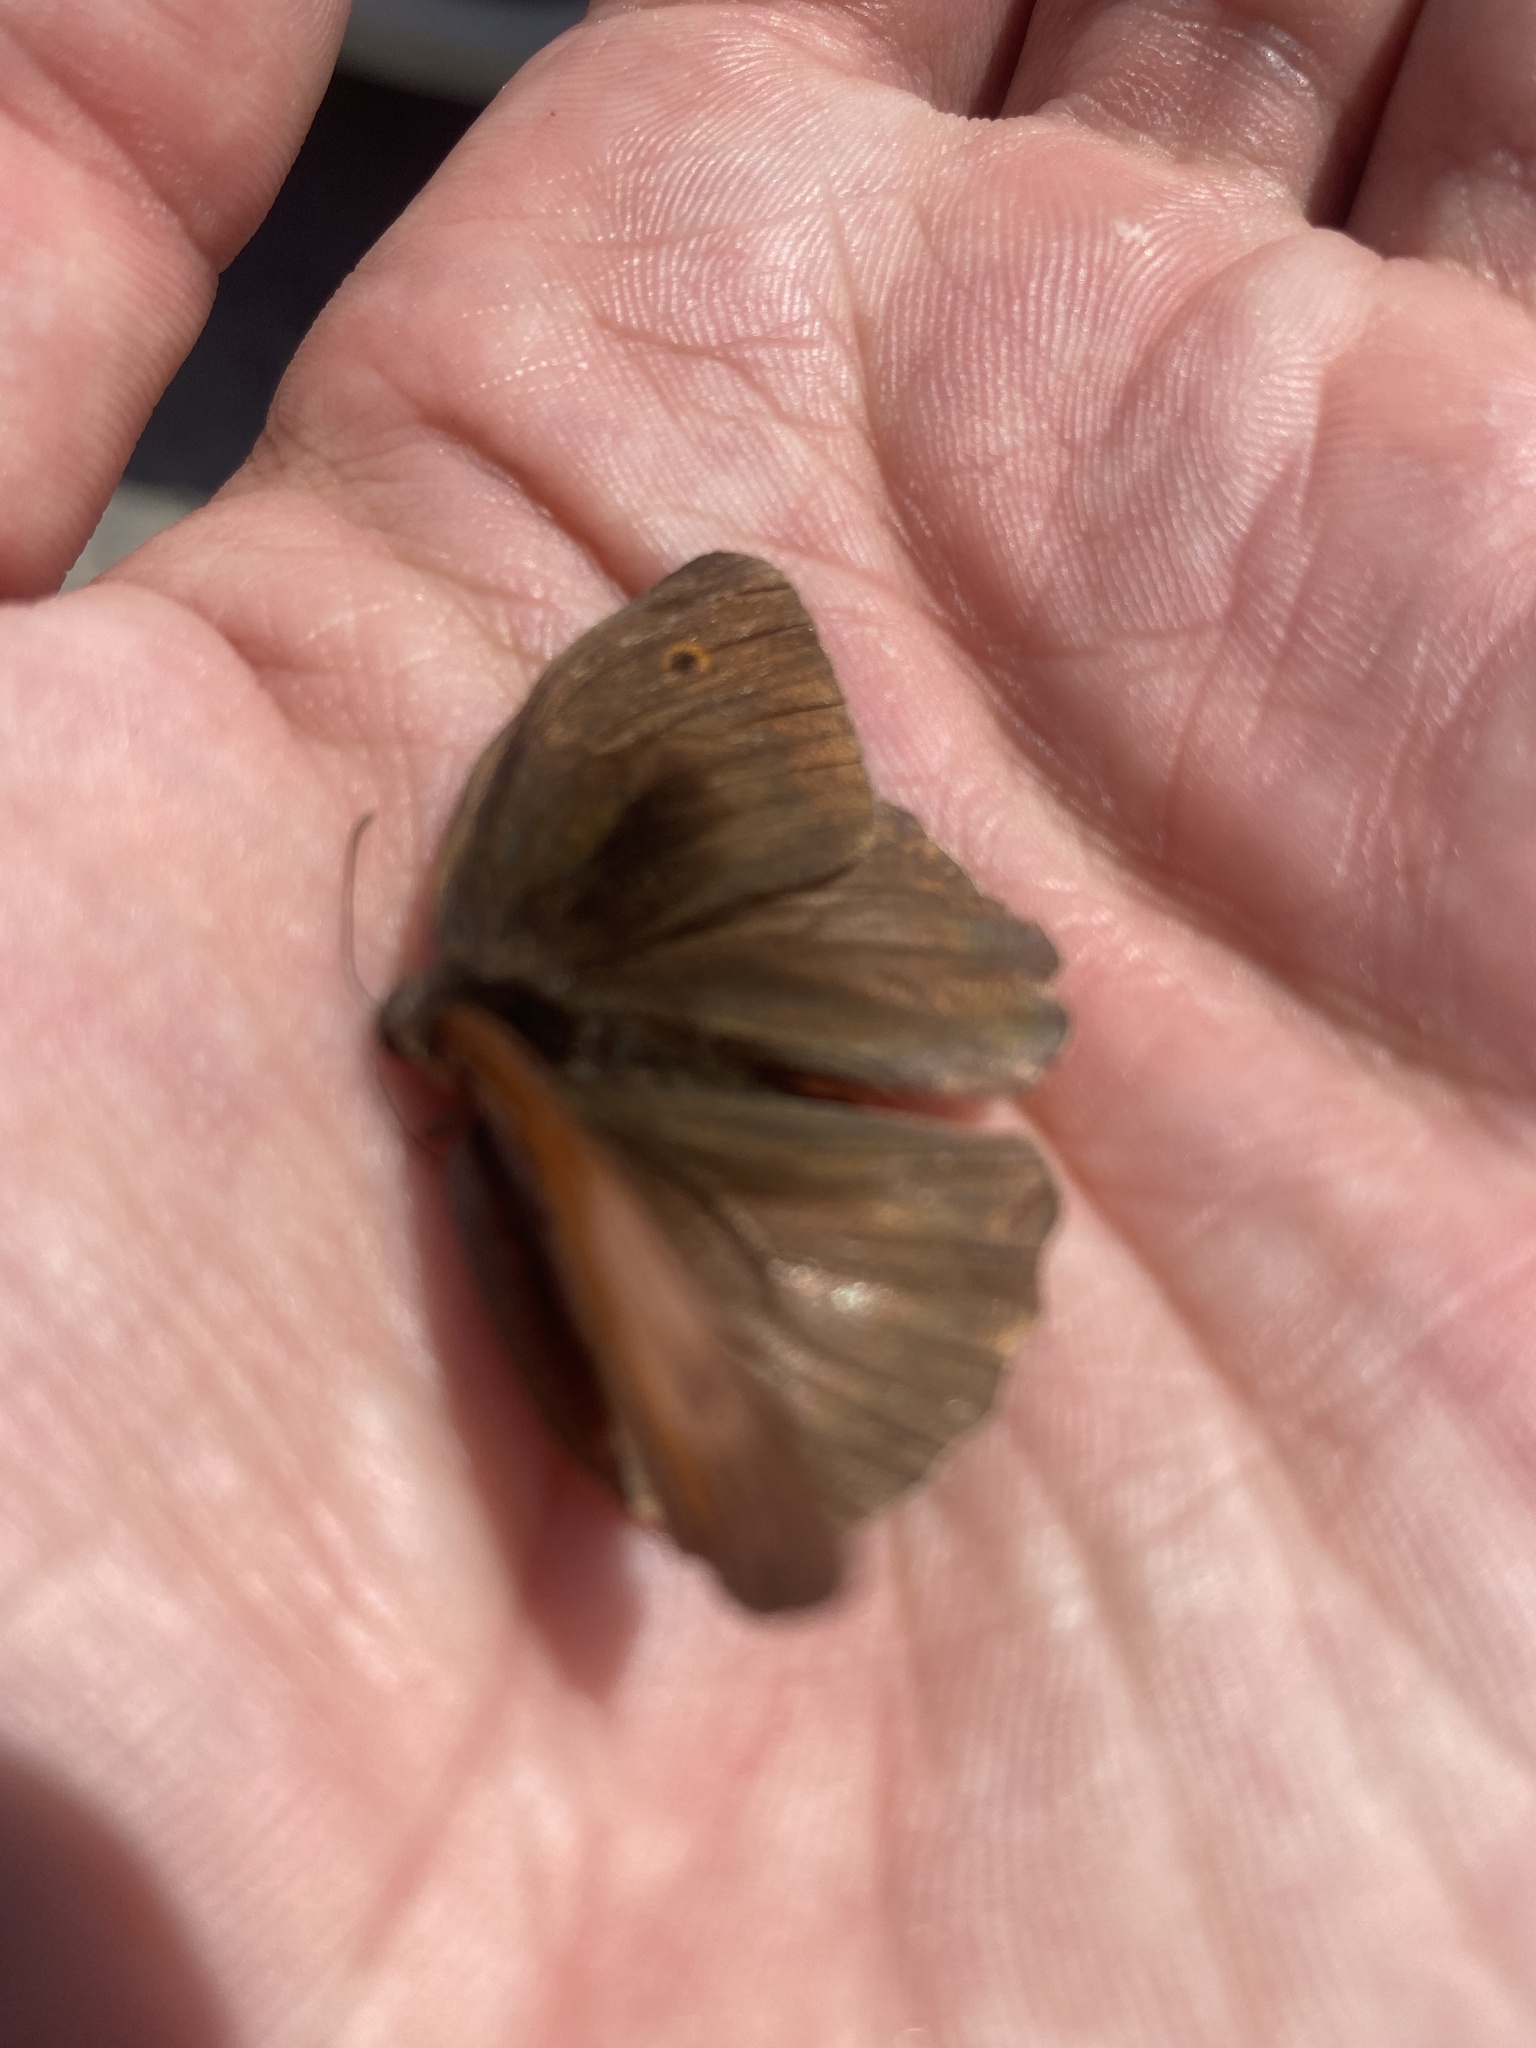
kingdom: Animalia
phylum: Arthropoda
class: Insecta
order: Lepidoptera
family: Nymphalidae
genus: Maniola
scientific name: Maniola jurtina
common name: Meadow brown
